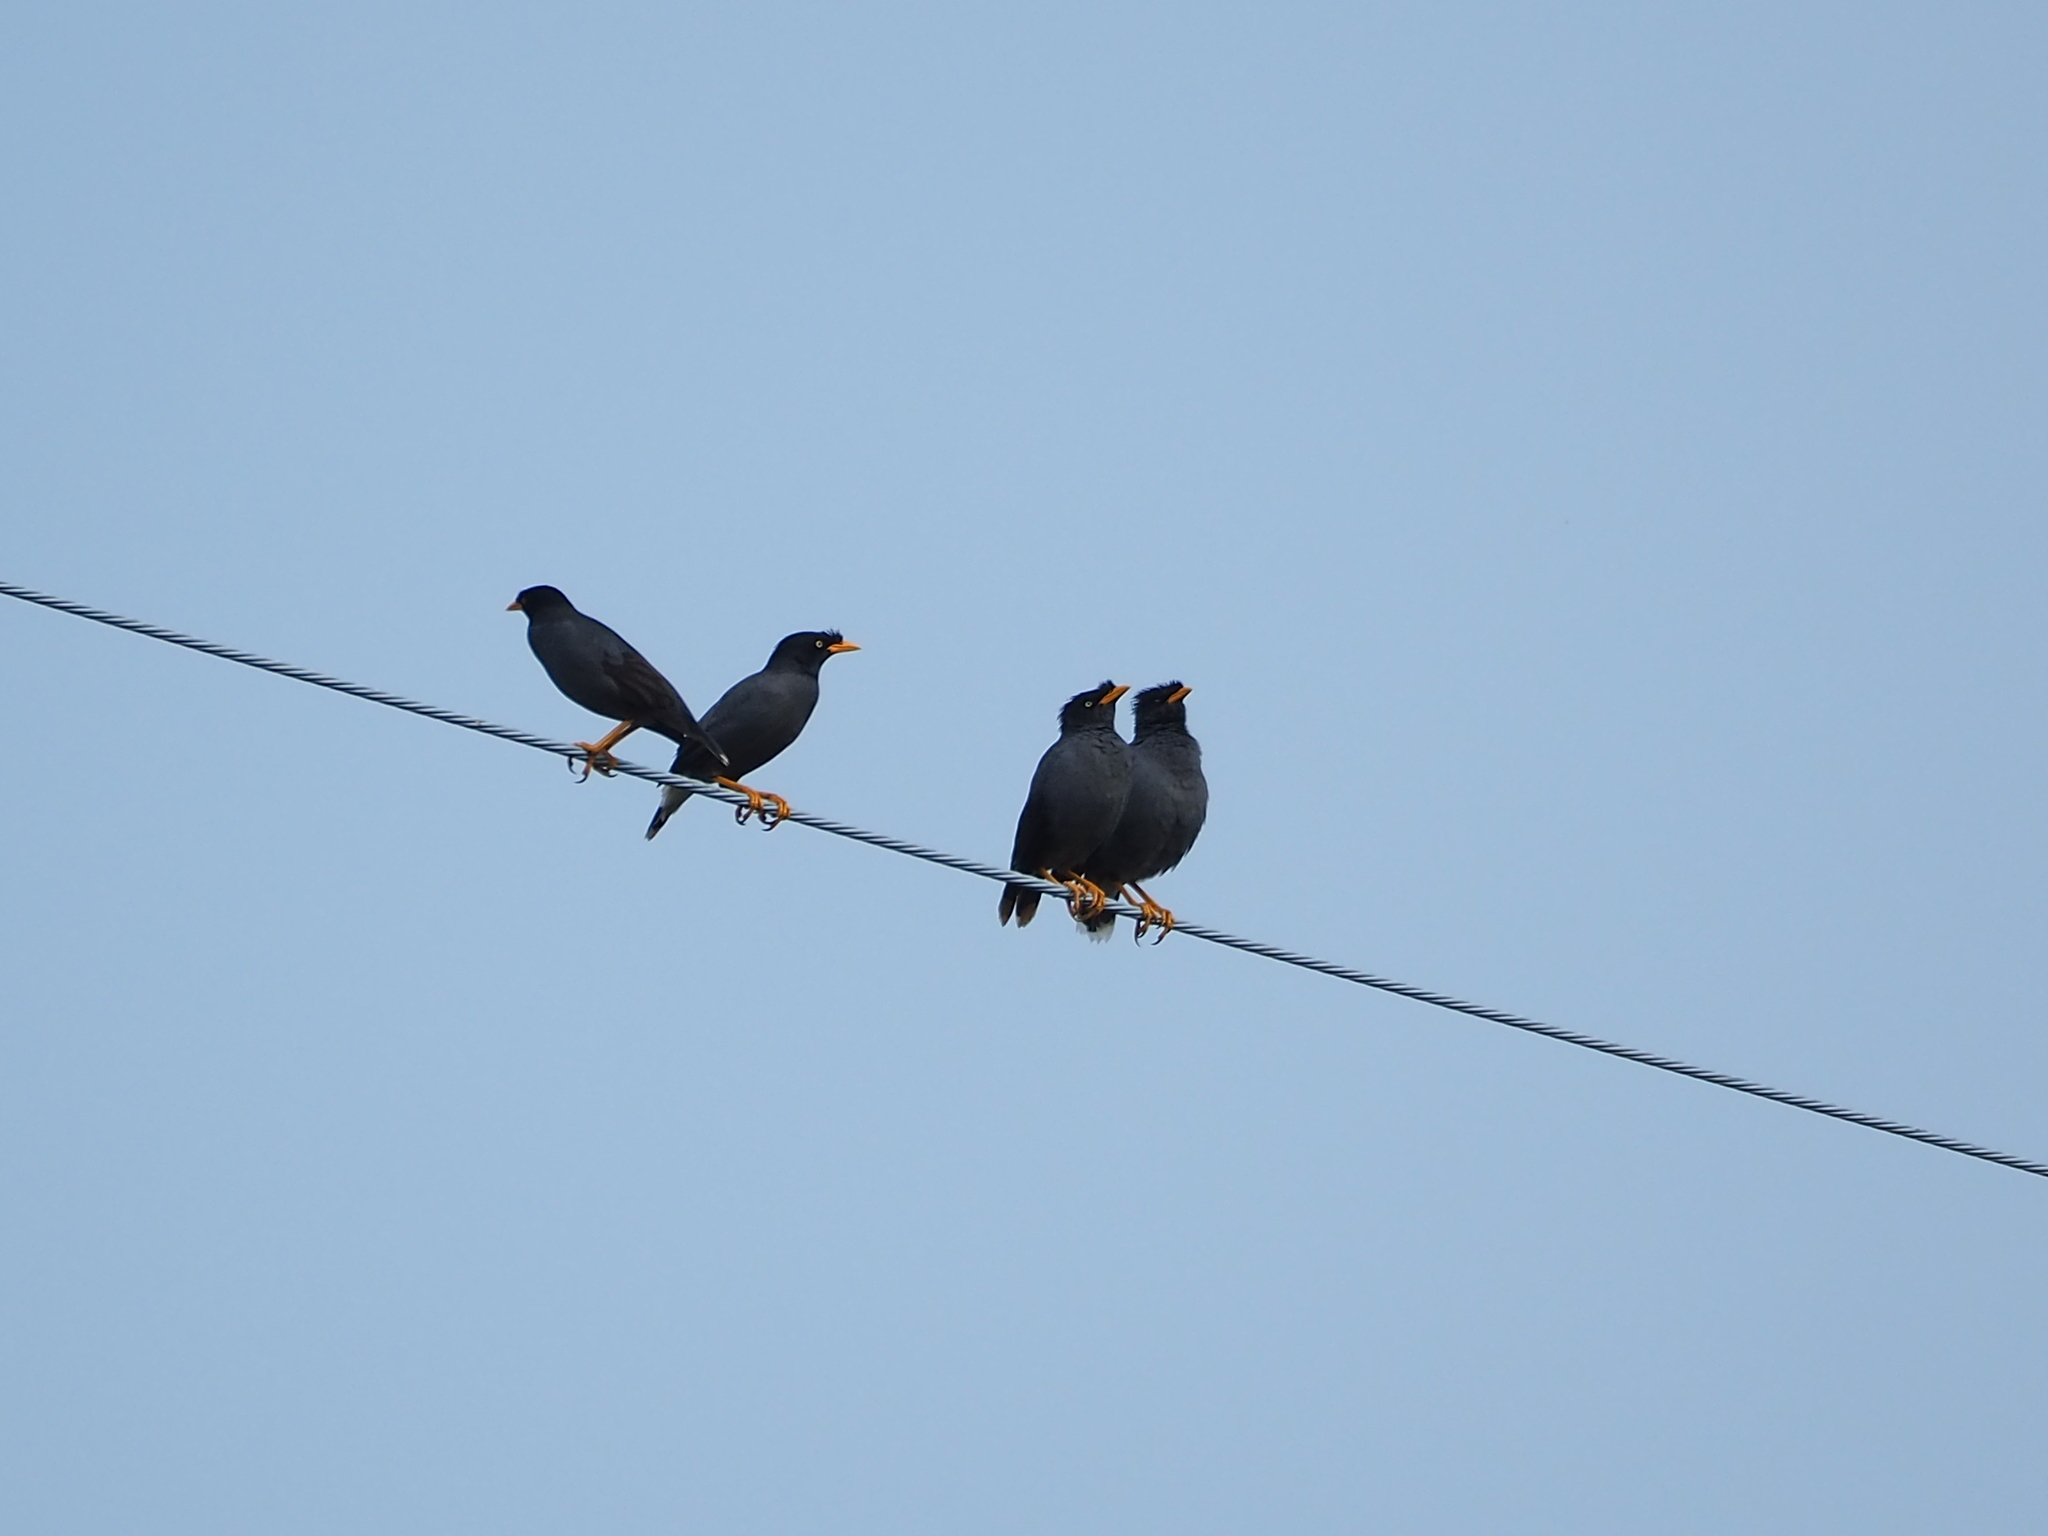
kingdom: Animalia
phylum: Chordata
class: Aves
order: Passeriformes
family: Sturnidae
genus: Acridotheres
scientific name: Acridotheres javanicus
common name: Javan myna
